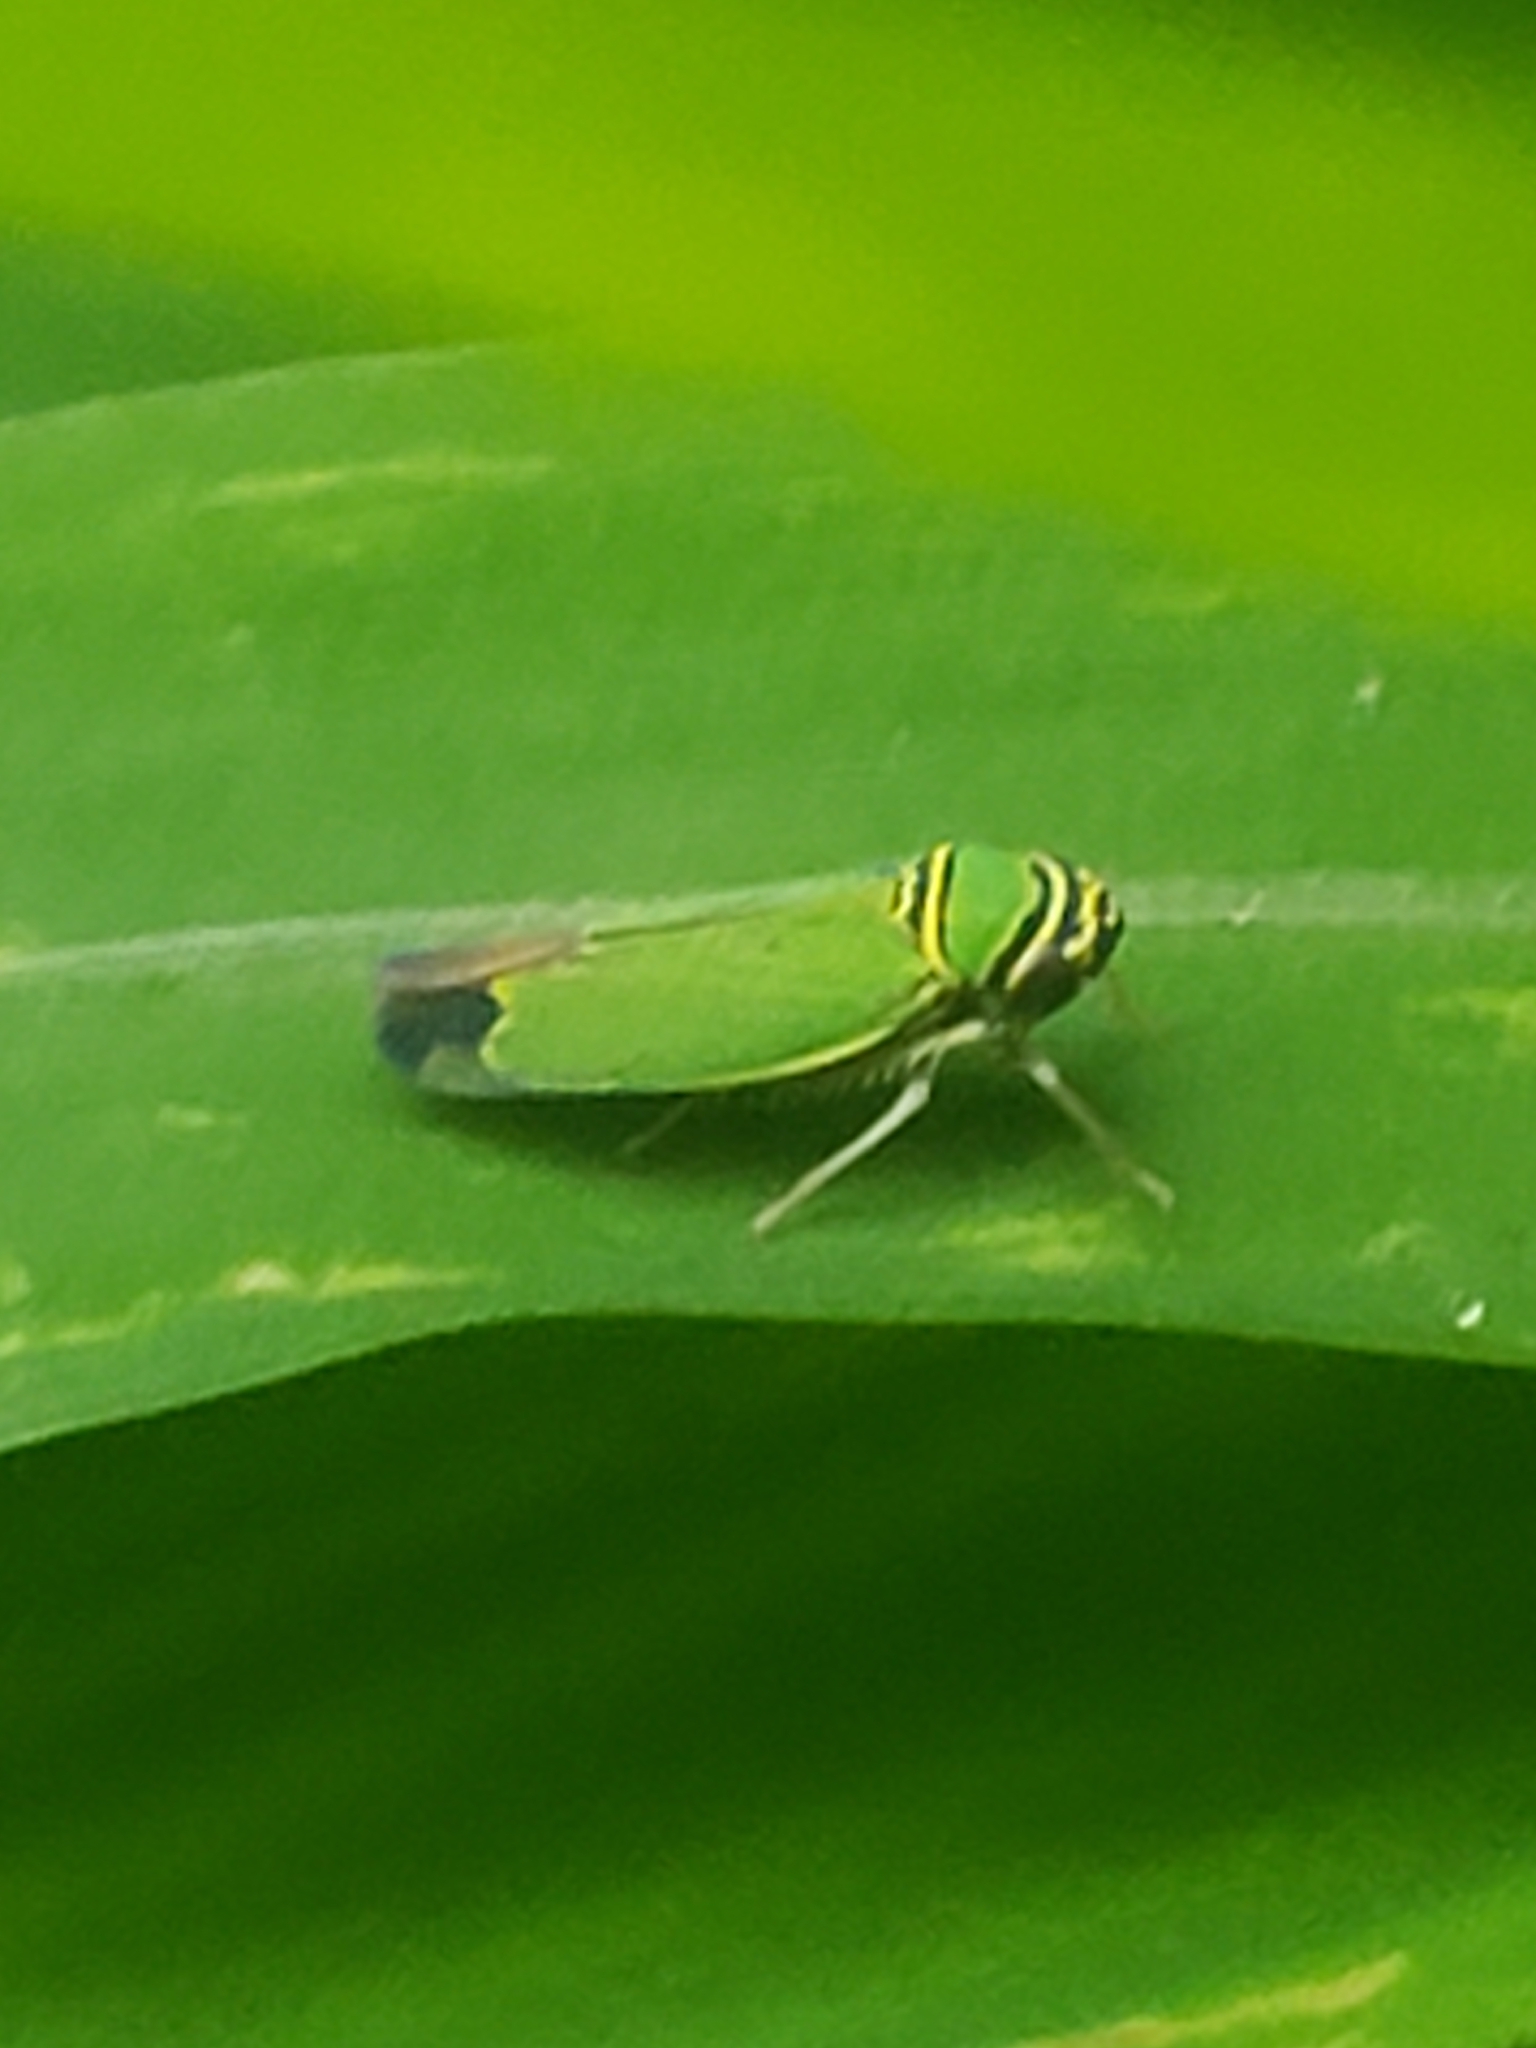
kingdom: Animalia
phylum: Arthropoda
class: Insecta
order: Hemiptera
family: Cicadellidae
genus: Tylozygus
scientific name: Tylozygus geometricus
